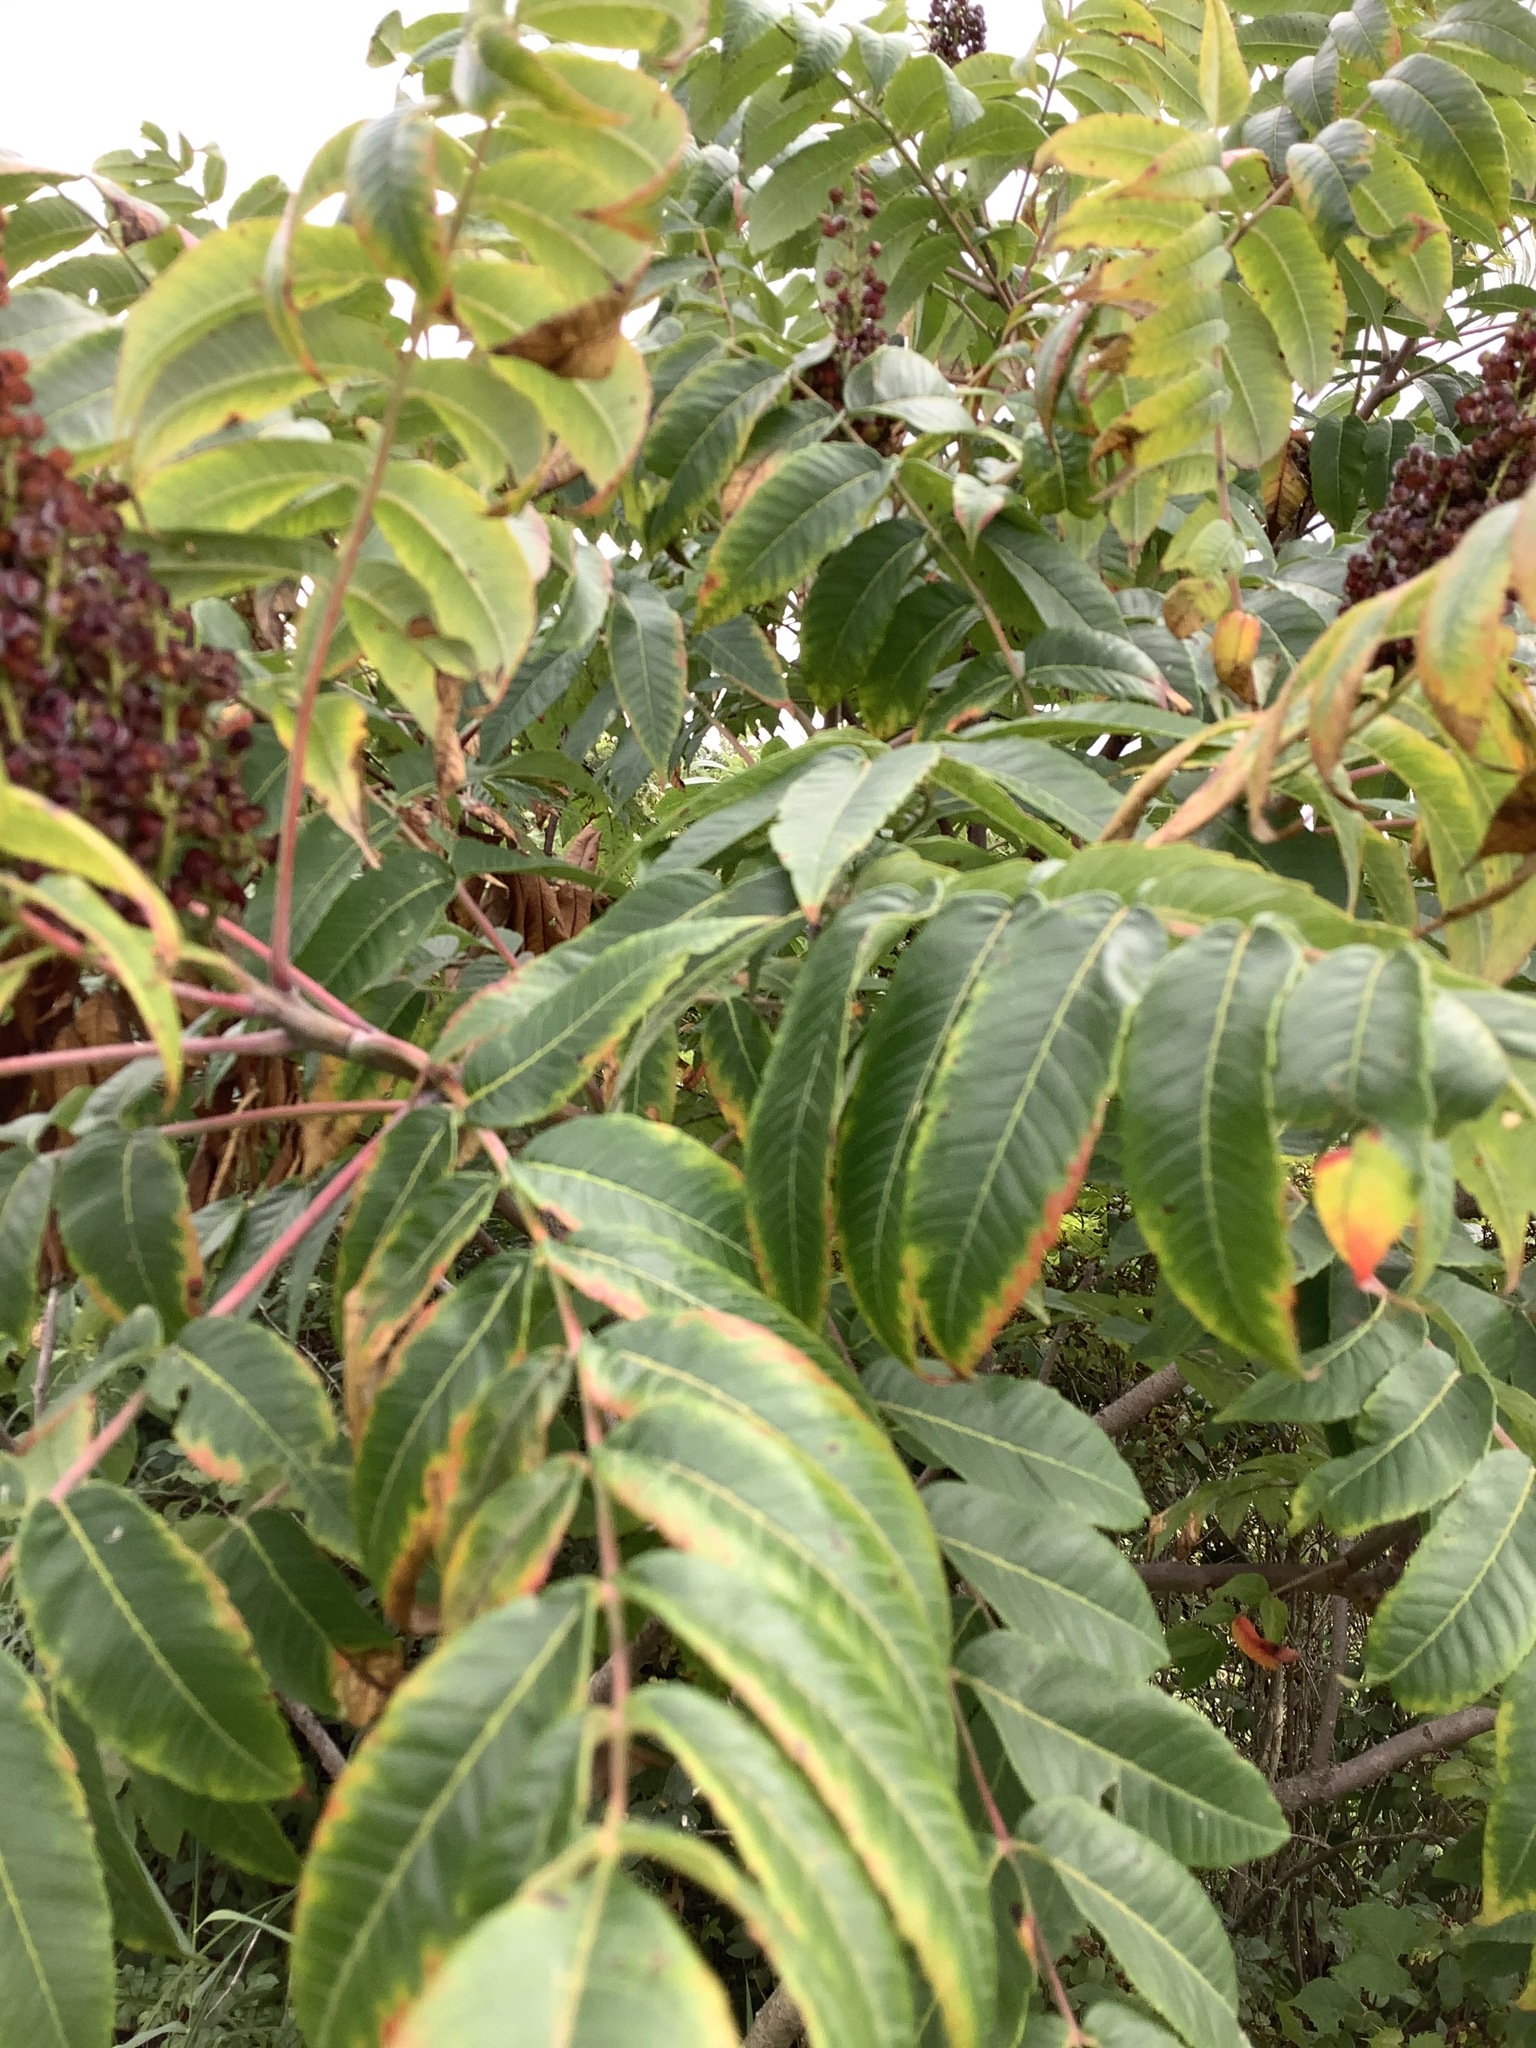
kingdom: Plantae
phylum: Tracheophyta
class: Magnoliopsida
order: Sapindales
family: Anacardiaceae
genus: Rhus
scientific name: Rhus glabra
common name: Scarlet sumac
